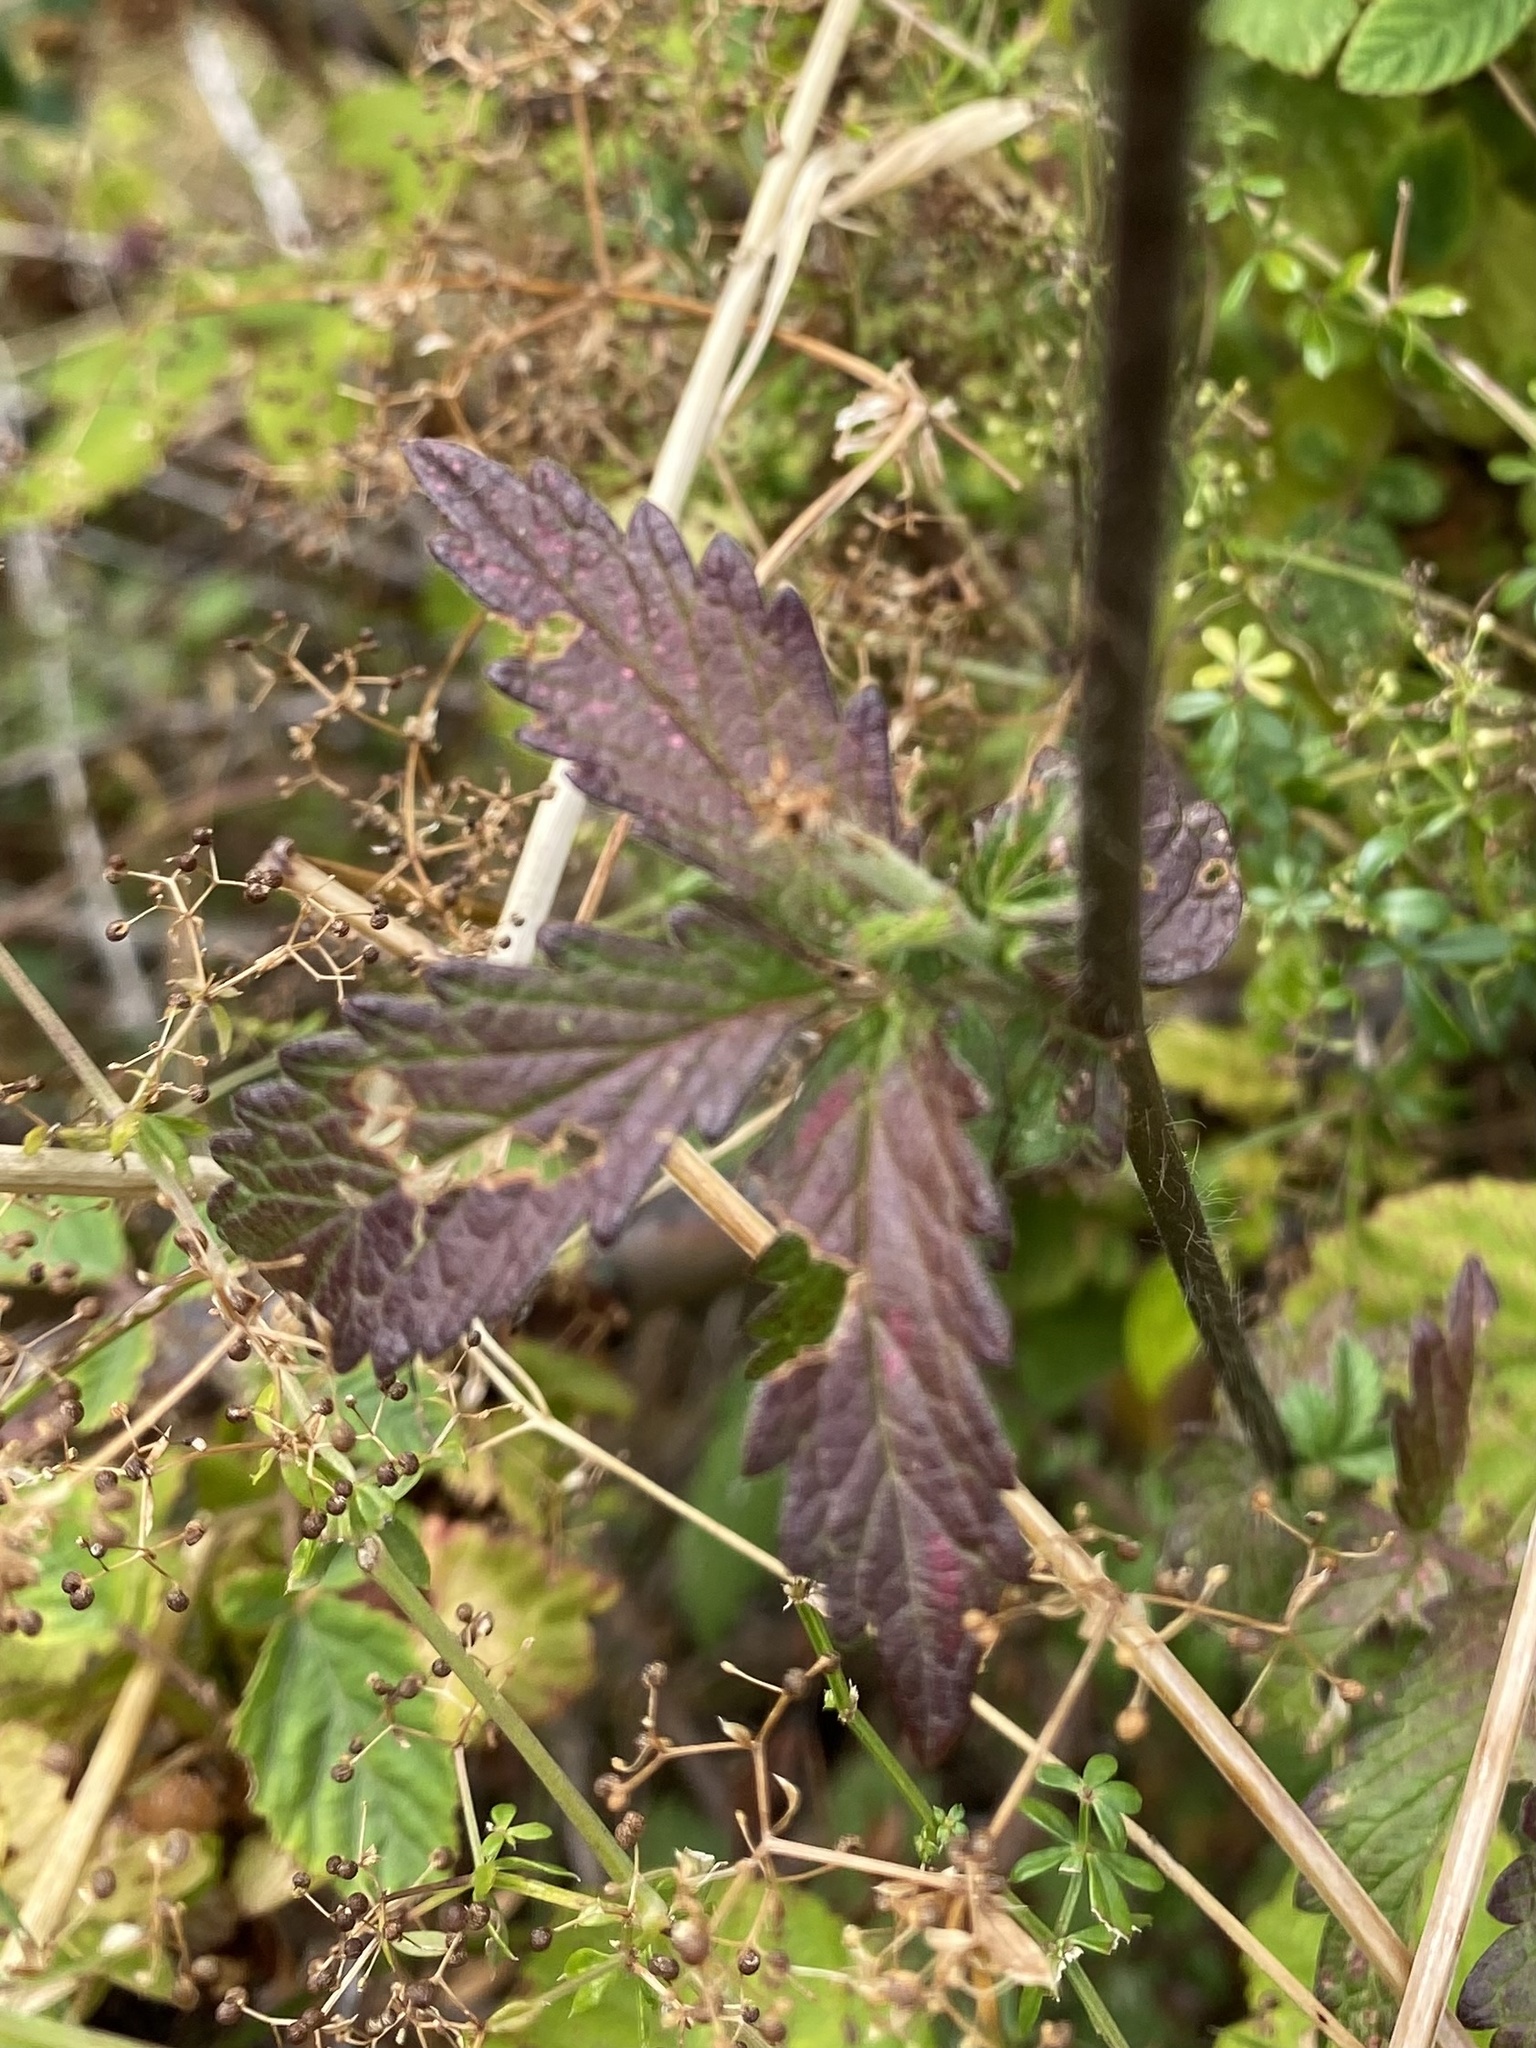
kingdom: Plantae
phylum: Tracheophyta
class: Magnoliopsida
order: Rosales
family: Rosaceae
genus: Agrimonia
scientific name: Agrimonia eupatoria
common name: Agrimony
